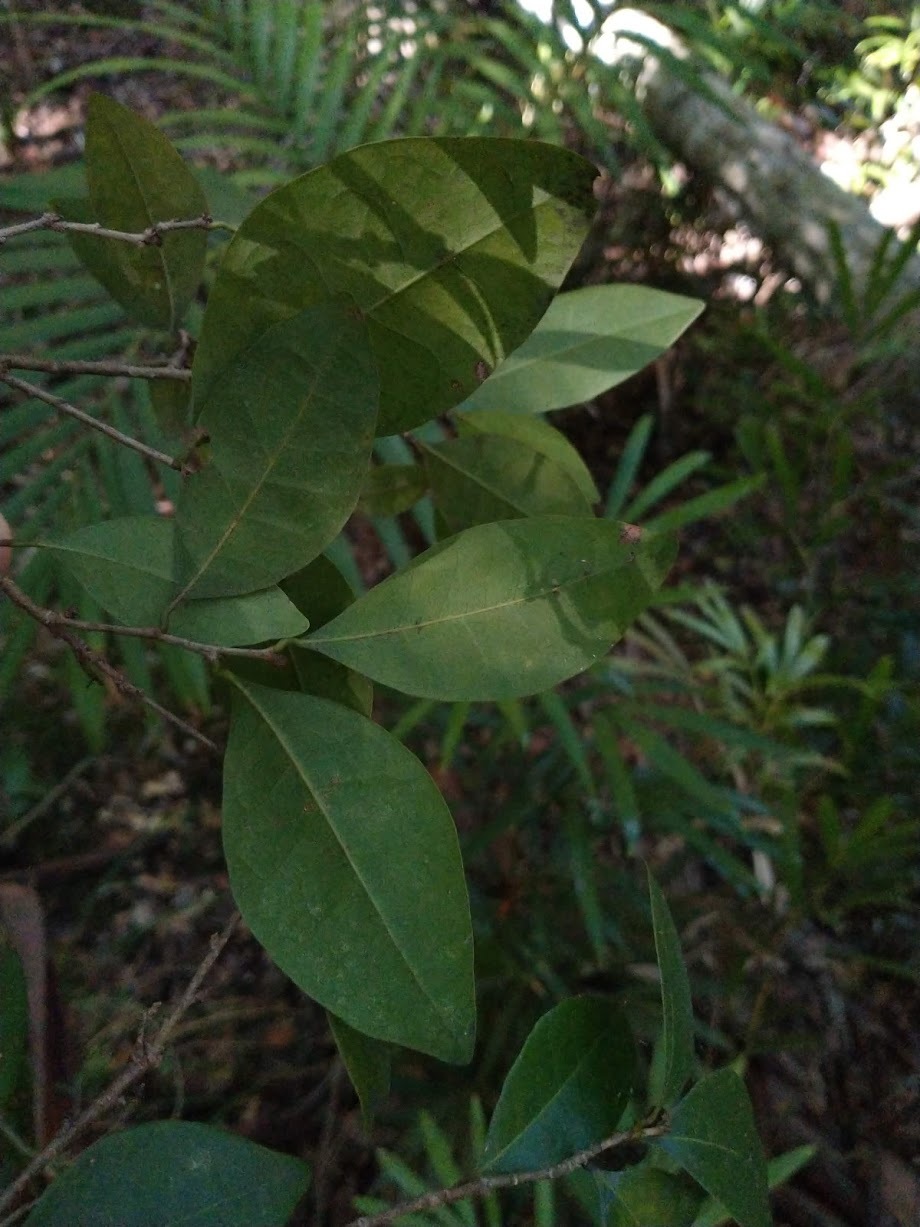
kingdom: Plantae
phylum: Tracheophyta
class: Magnoliopsida
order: Malpighiales
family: Phyllanthaceae
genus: Cleistanthus
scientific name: Cleistanthus cunninghamii
